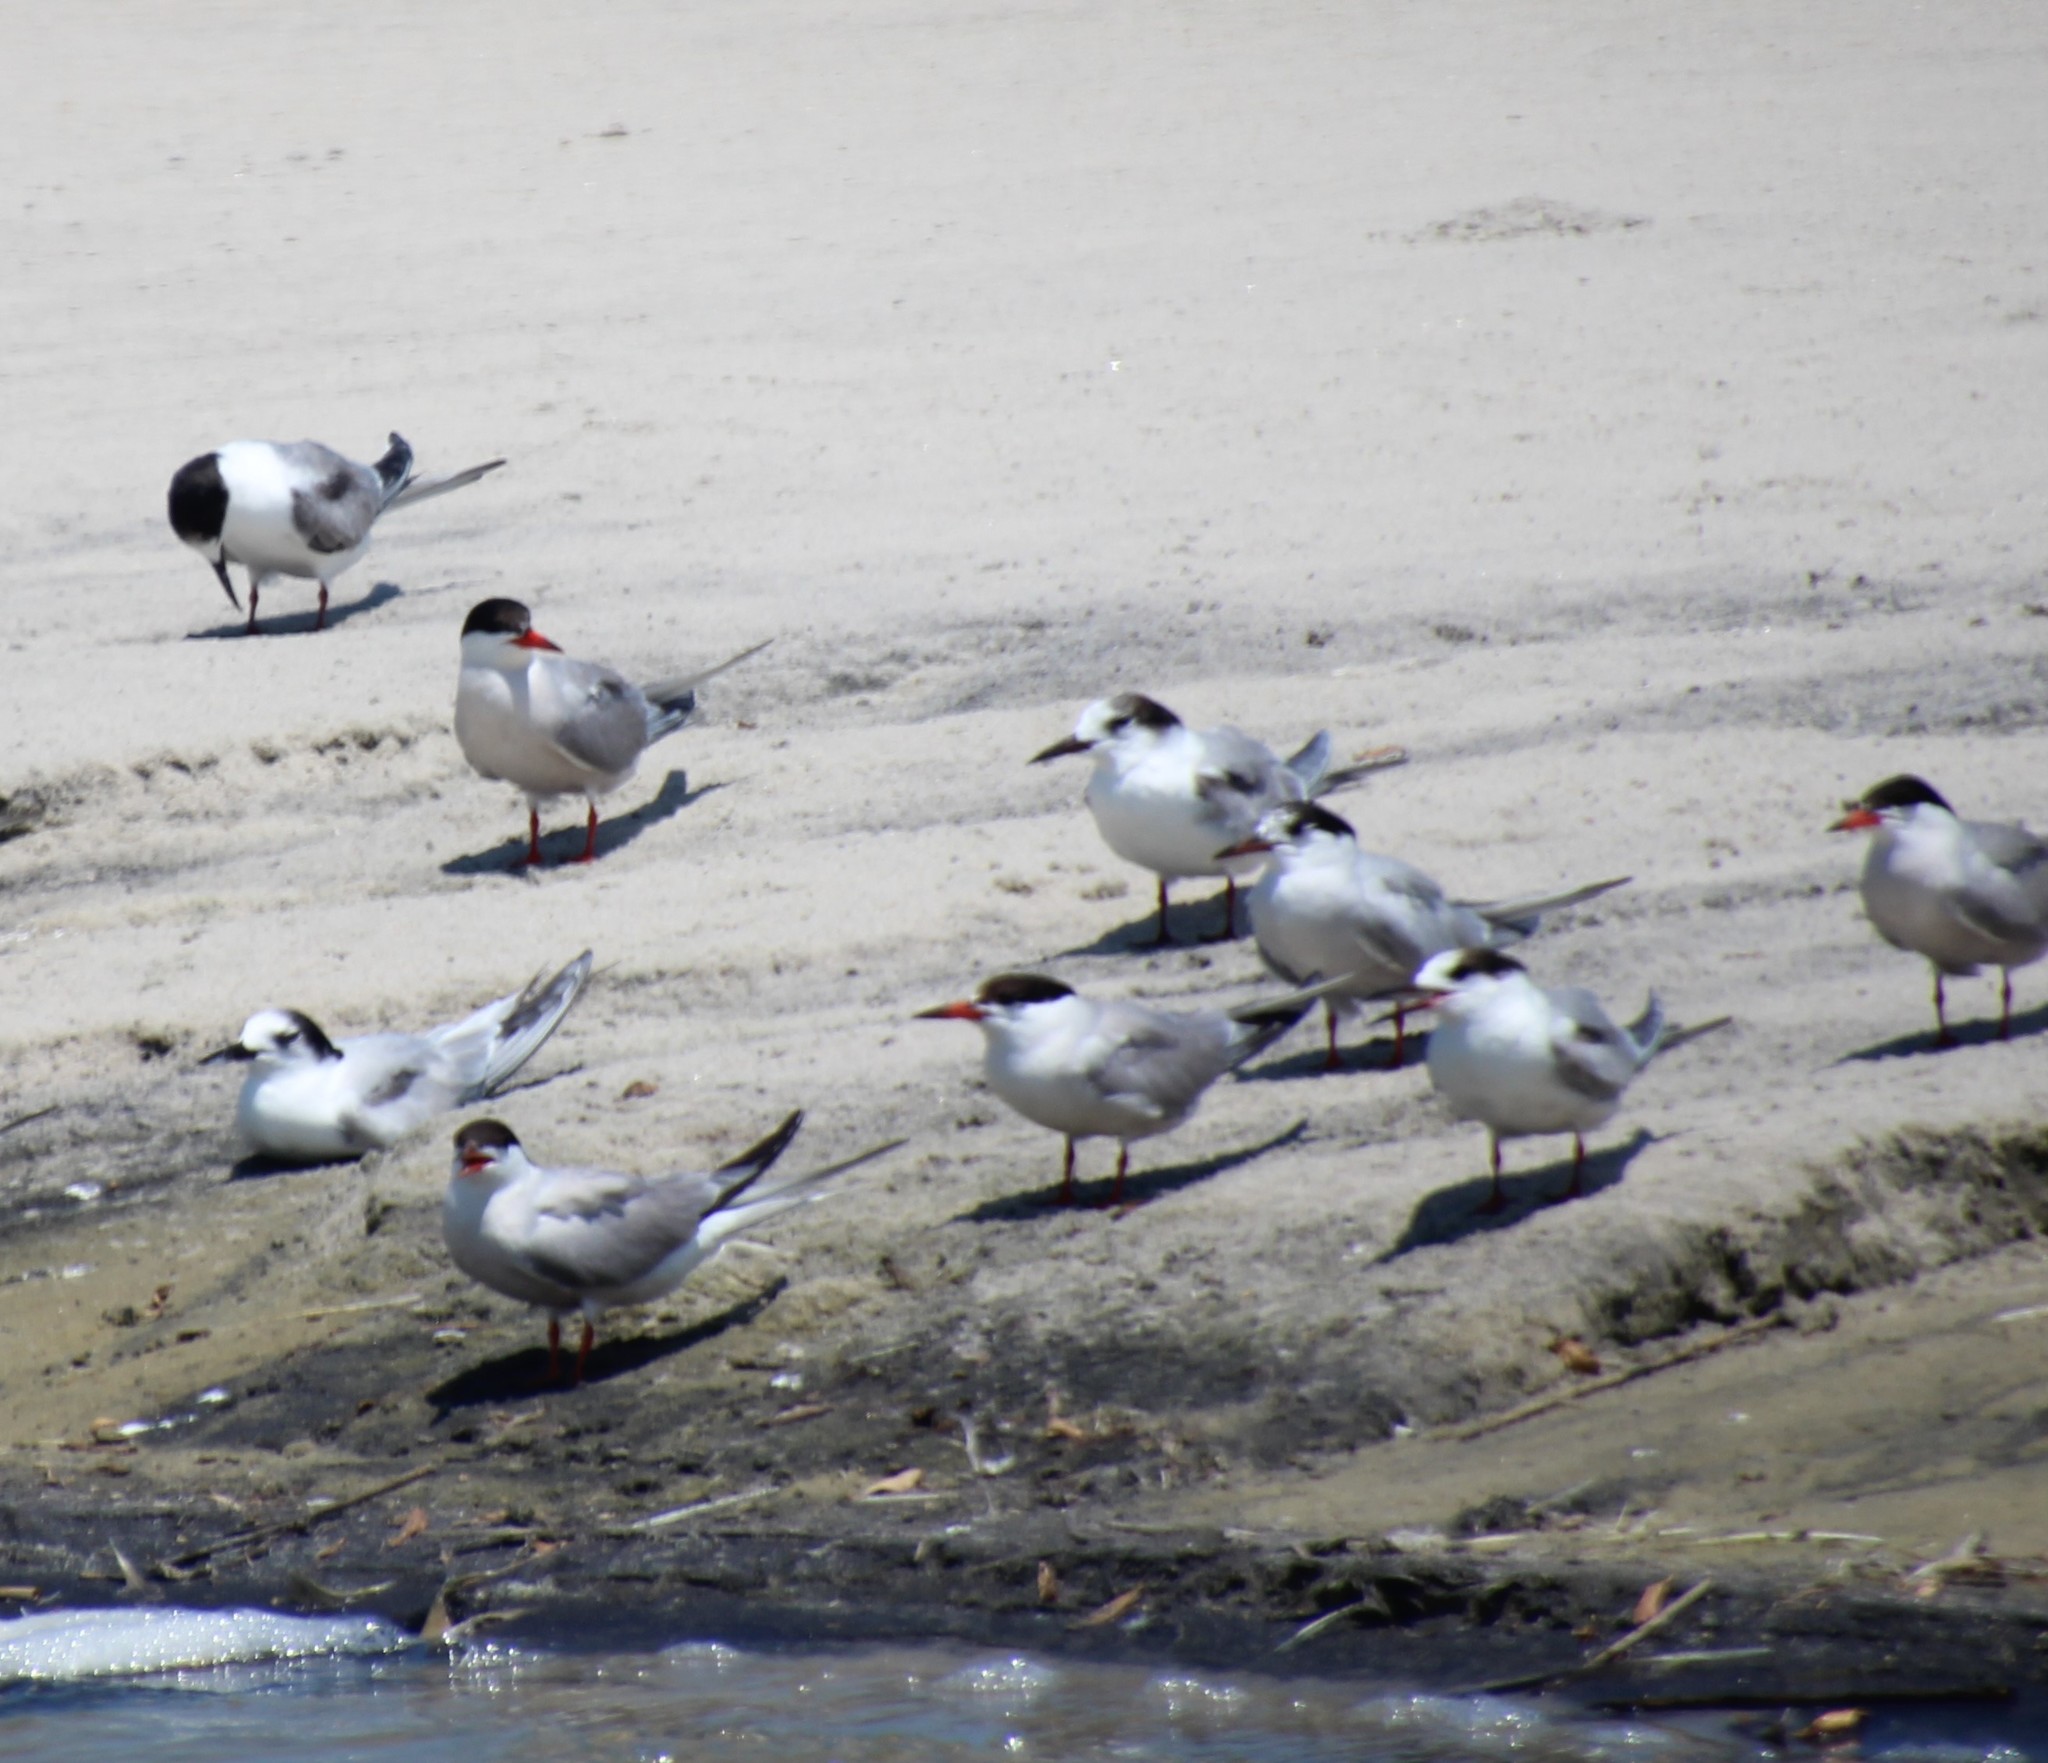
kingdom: Animalia
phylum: Chordata
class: Aves
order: Charadriiformes
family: Laridae
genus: Sterna
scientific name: Sterna hirundo
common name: Common tern
